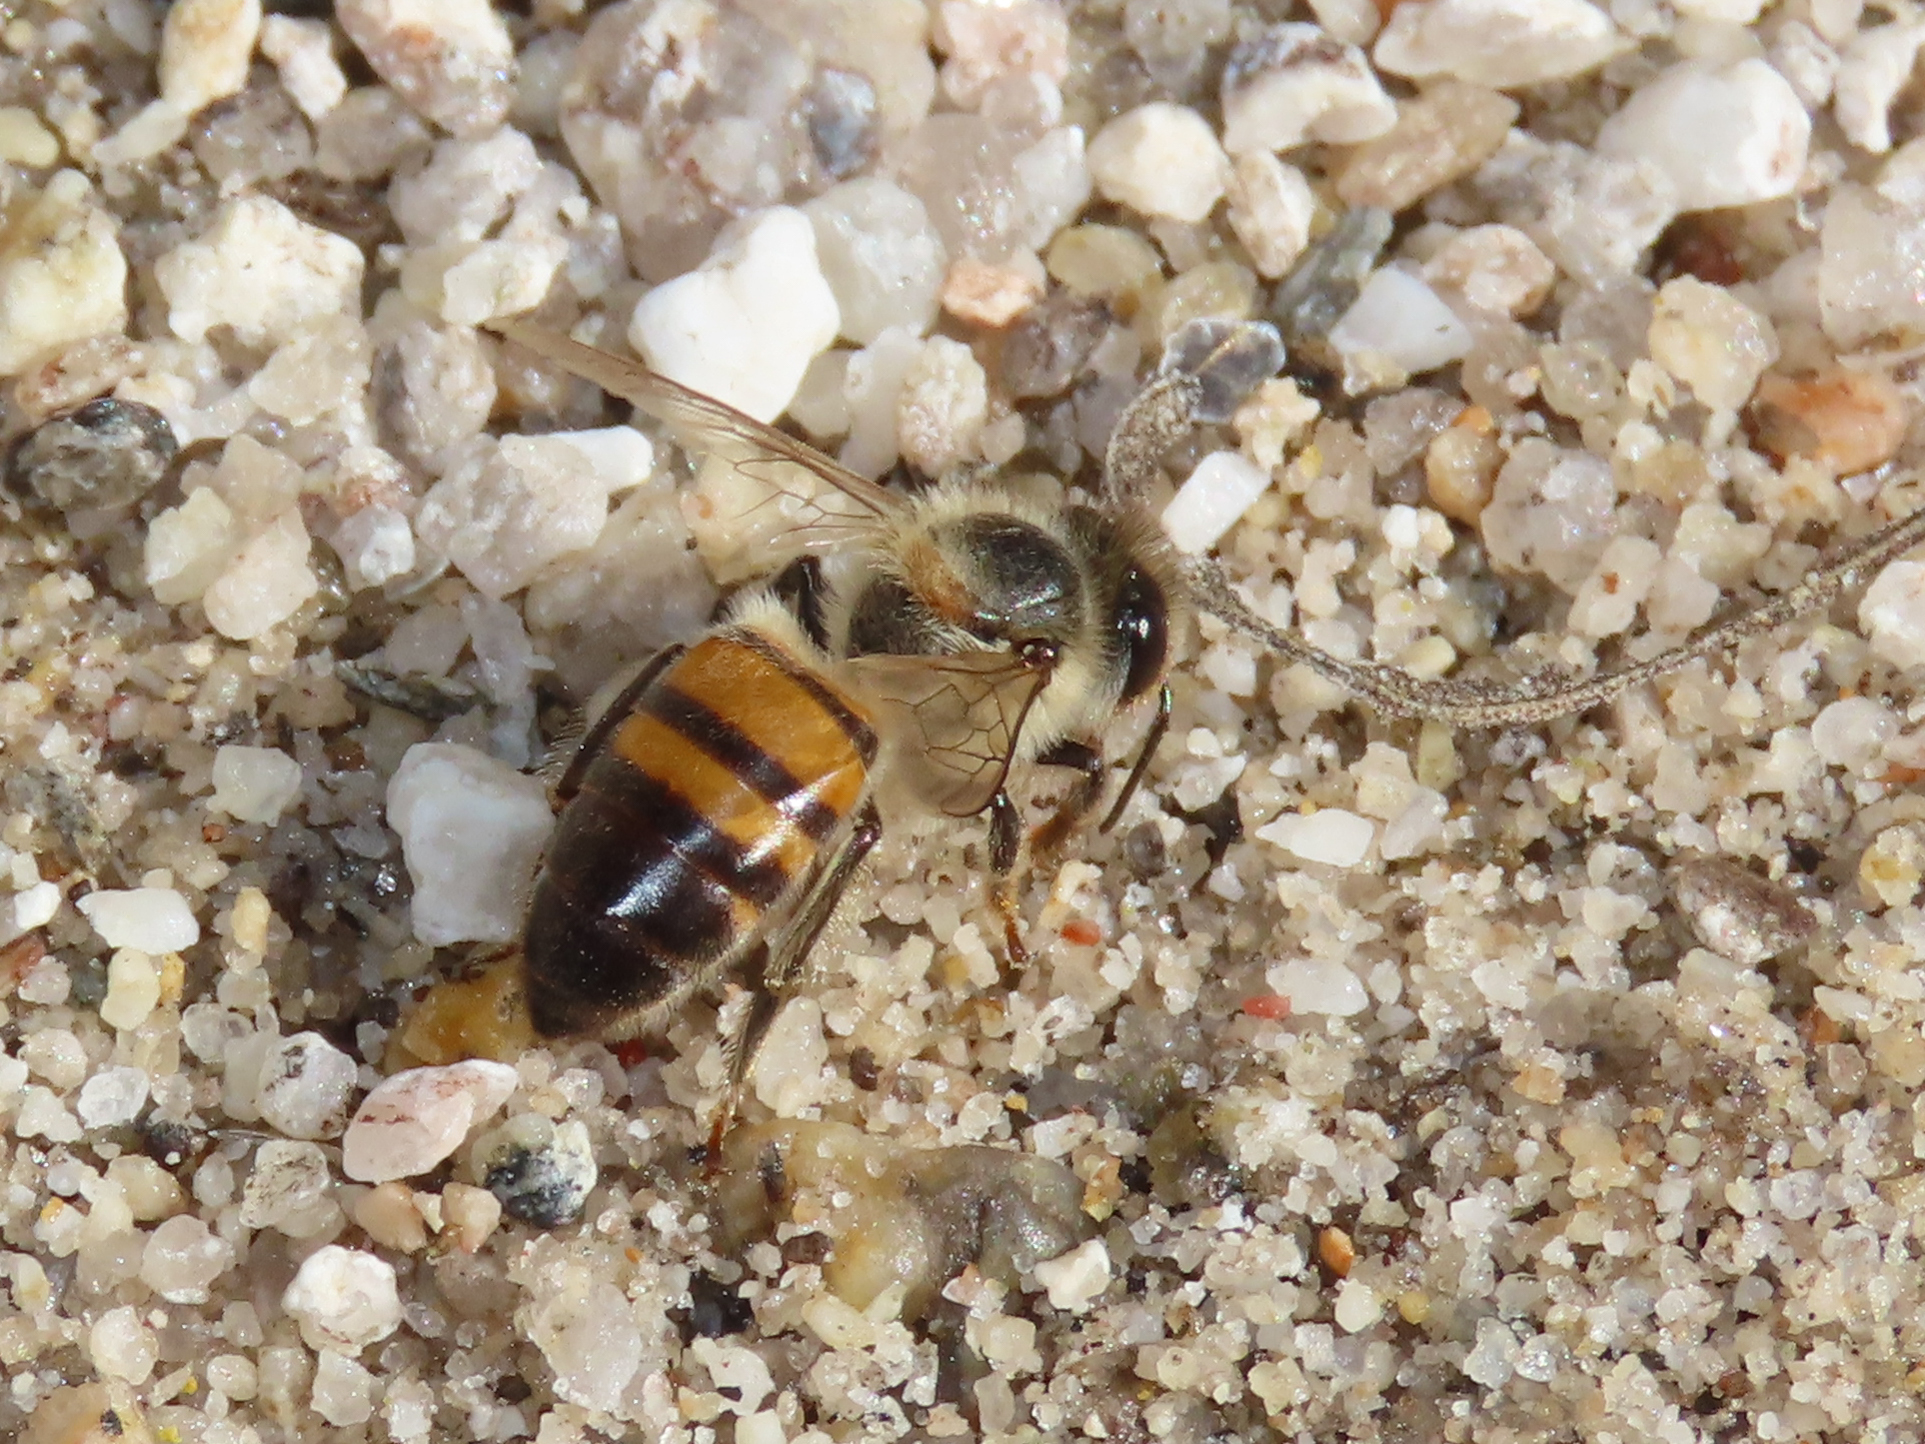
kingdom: Animalia
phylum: Arthropoda
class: Insecta
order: Hymenoptera
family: Apidae
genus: Apis
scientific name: Apis mellifera
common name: Honey bee
